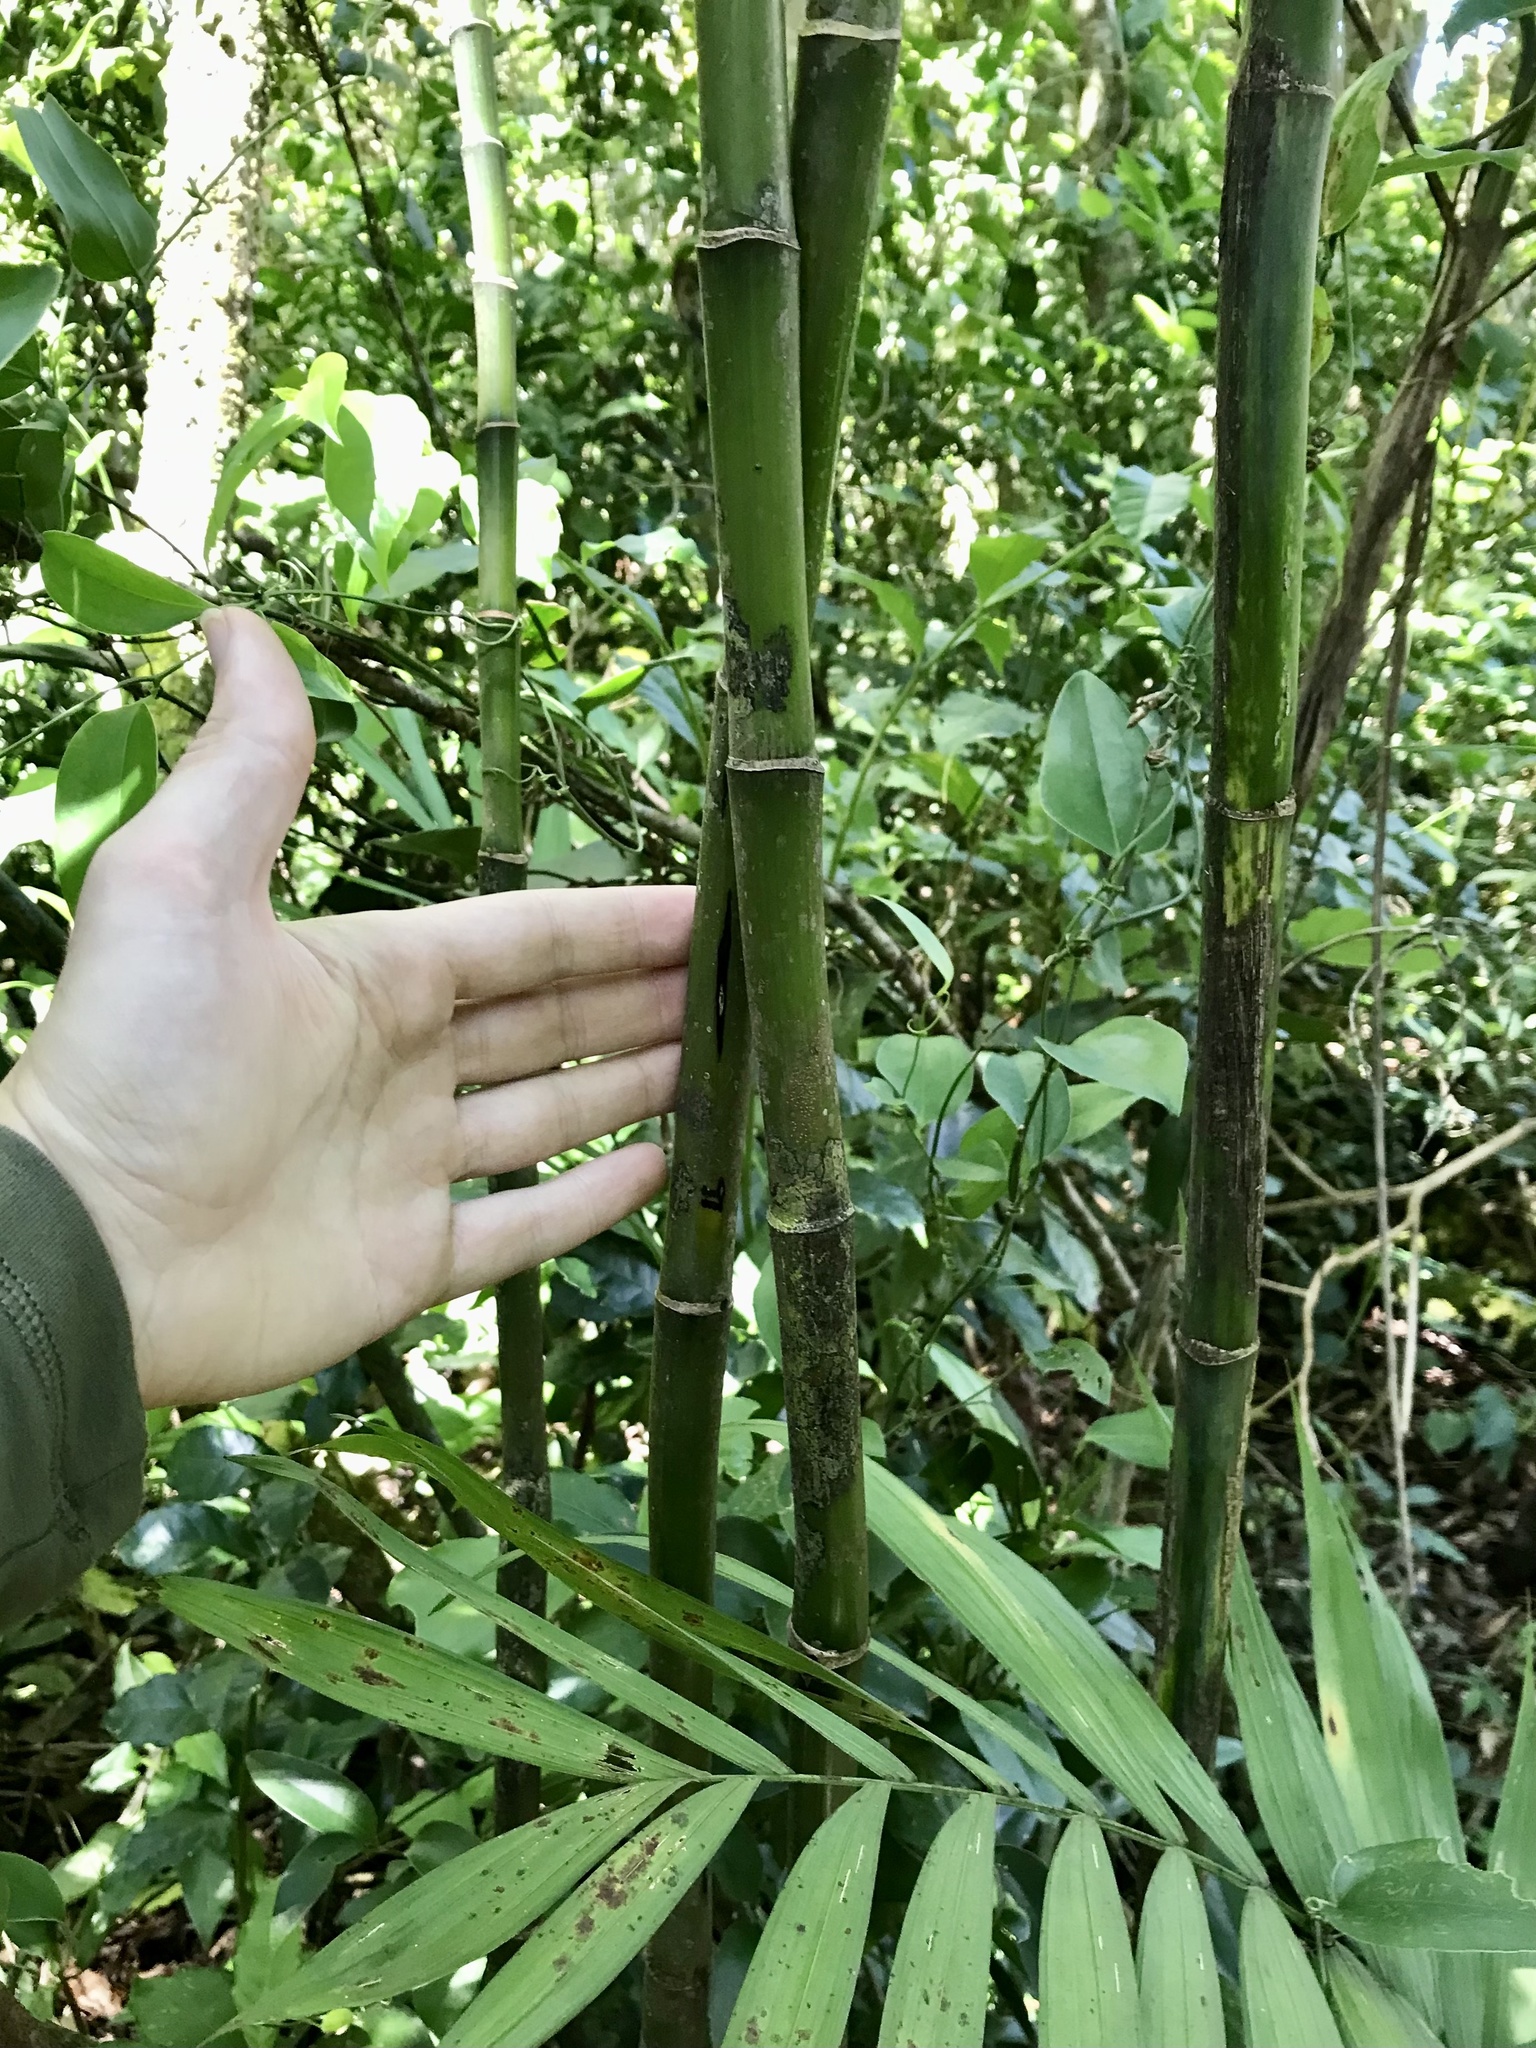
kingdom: Plantae
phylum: Tracheophyta
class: Liliopsida
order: Arecales
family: Arecaceae
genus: Chamaedorea
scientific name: Chamaedorea costaricana
